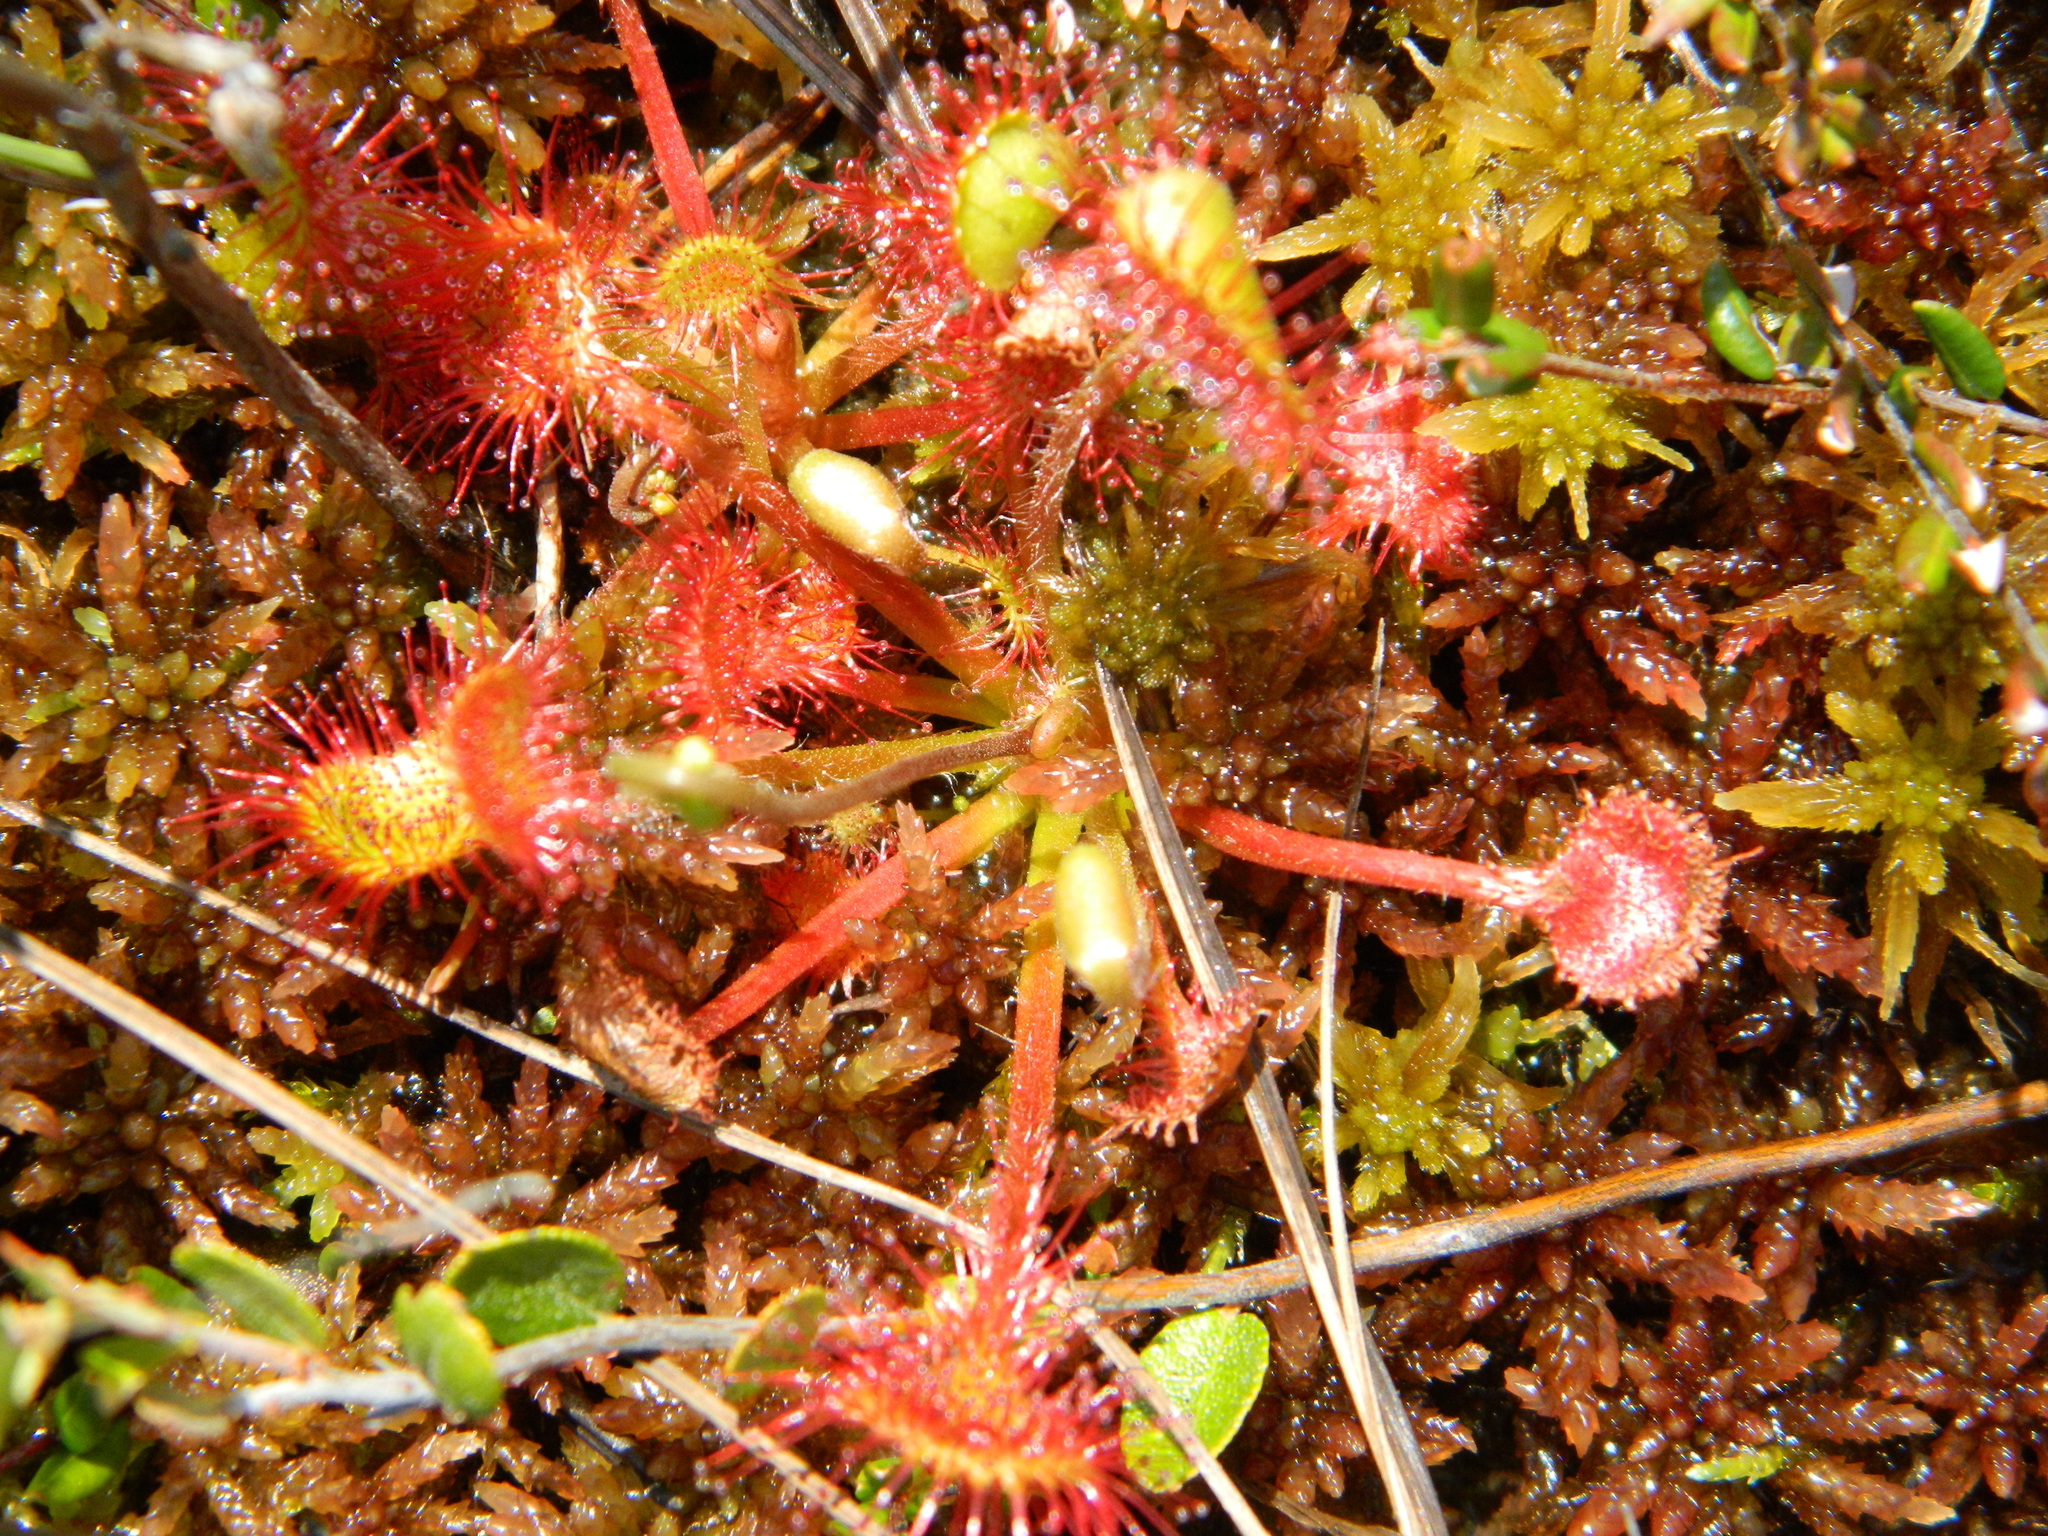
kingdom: Plantae
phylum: Tracheophyta
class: Magnoliopsida
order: Caryophyllales
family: Droseraceae
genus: Drosera
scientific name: Drosera rotundifolia
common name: Round-leaved sundew
